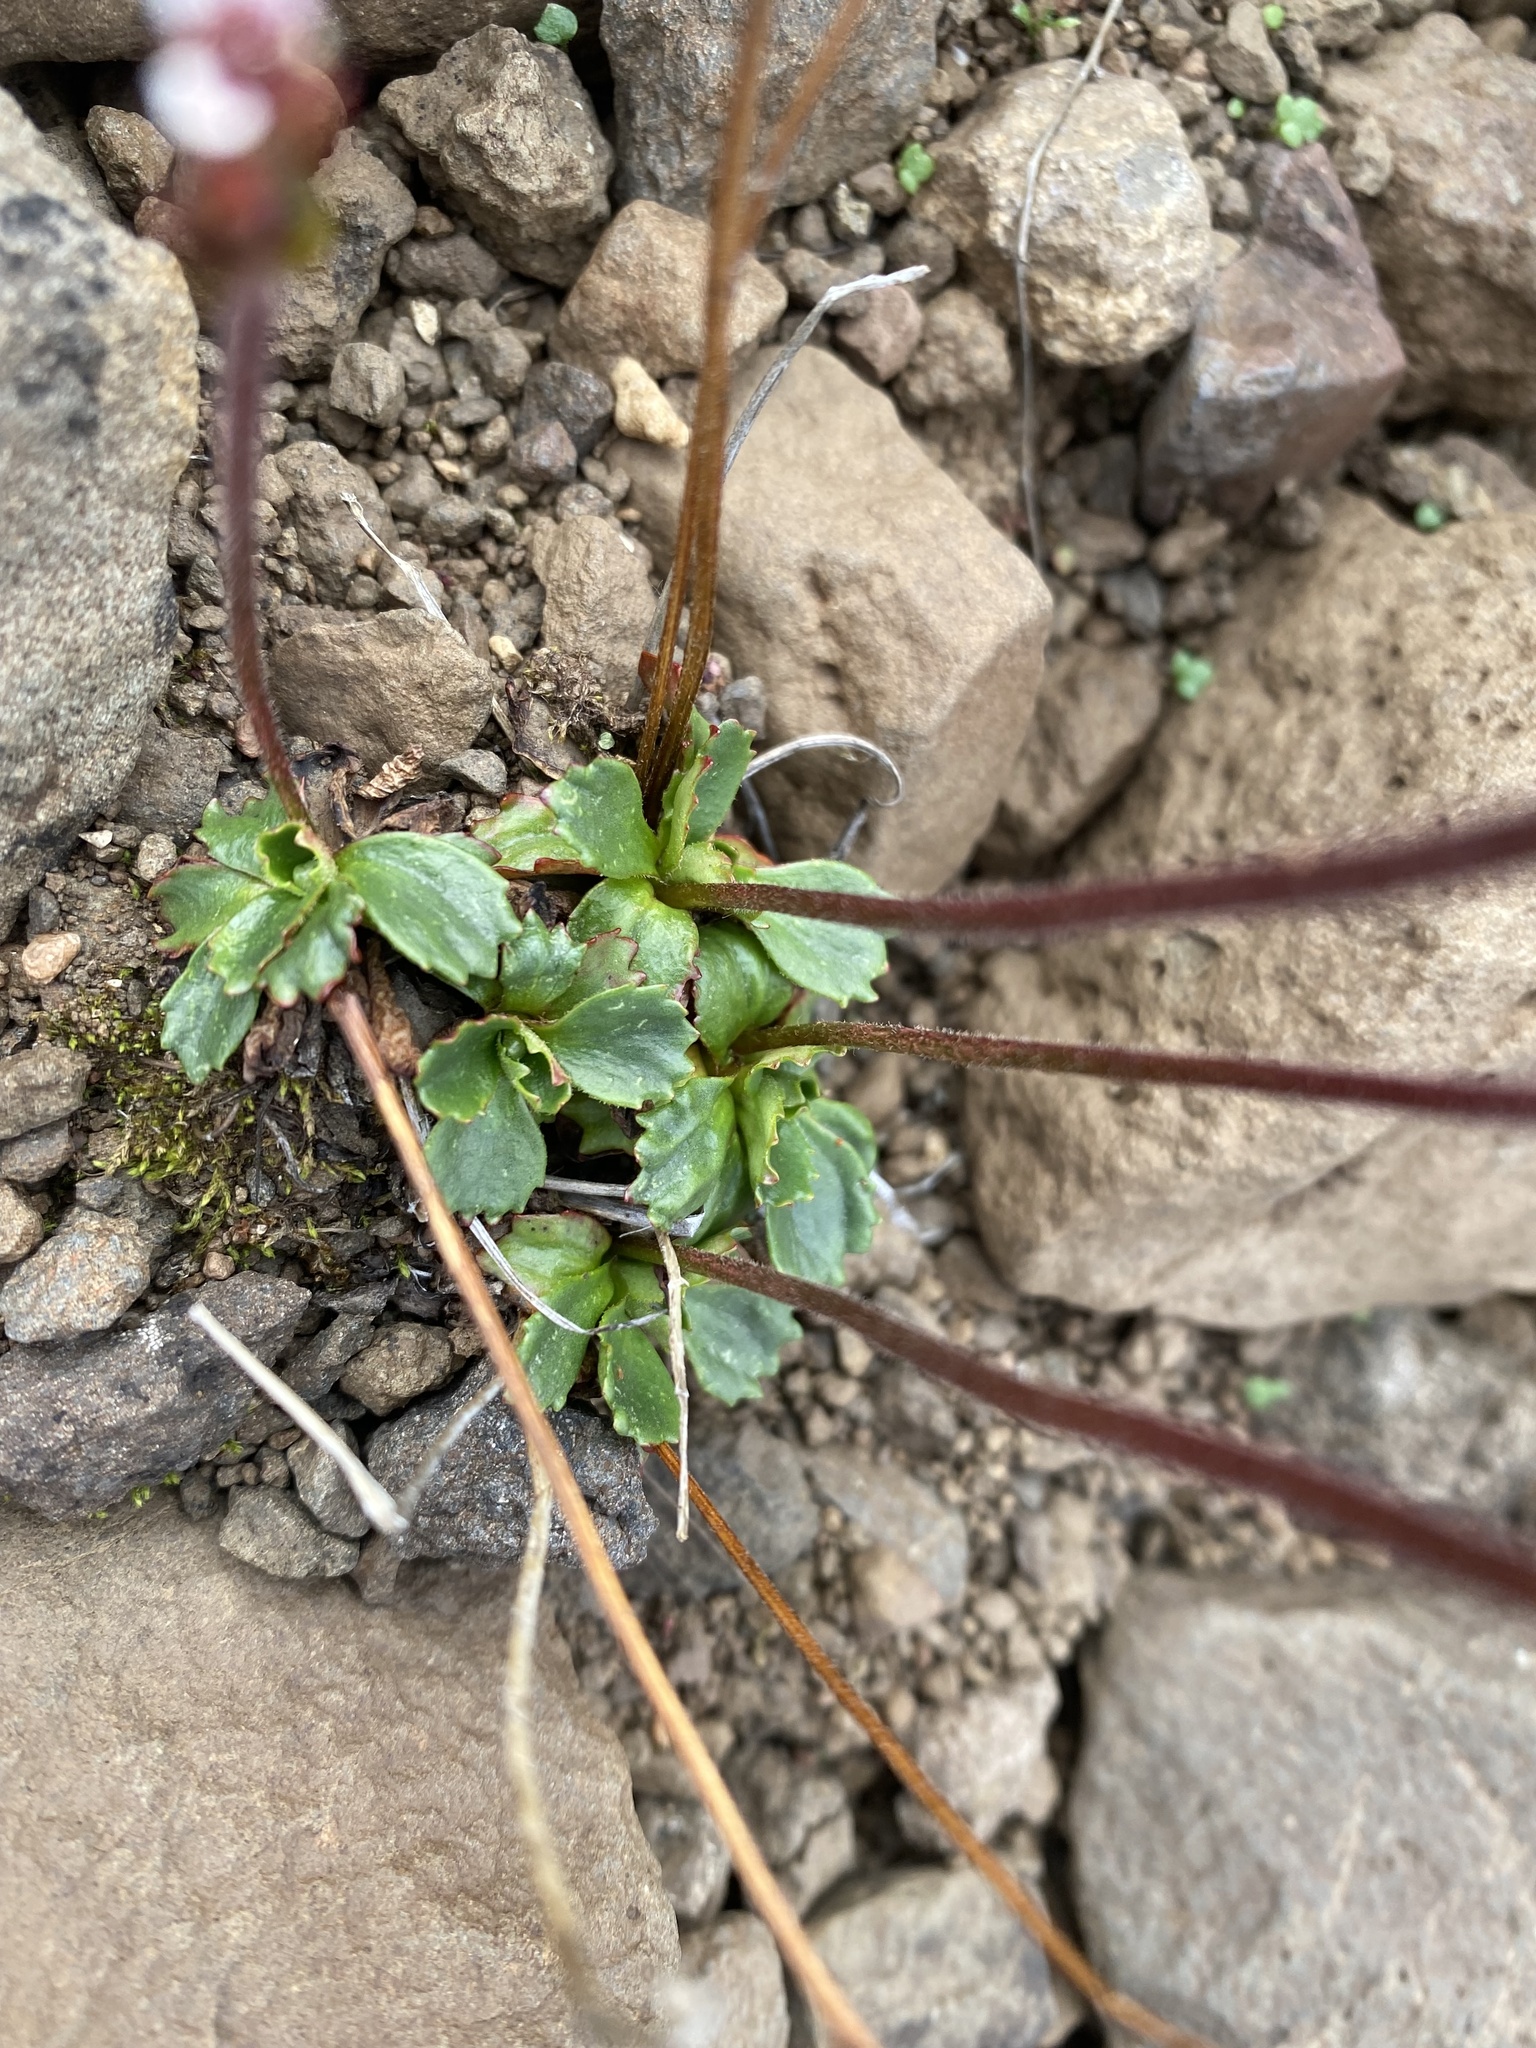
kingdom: Plantae
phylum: Tracheophyta
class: Magnoliopsida
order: Saxifragales
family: Saxifragaceae
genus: Micranthes
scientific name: Micranthes nivalis
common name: Alpine saxifrage
